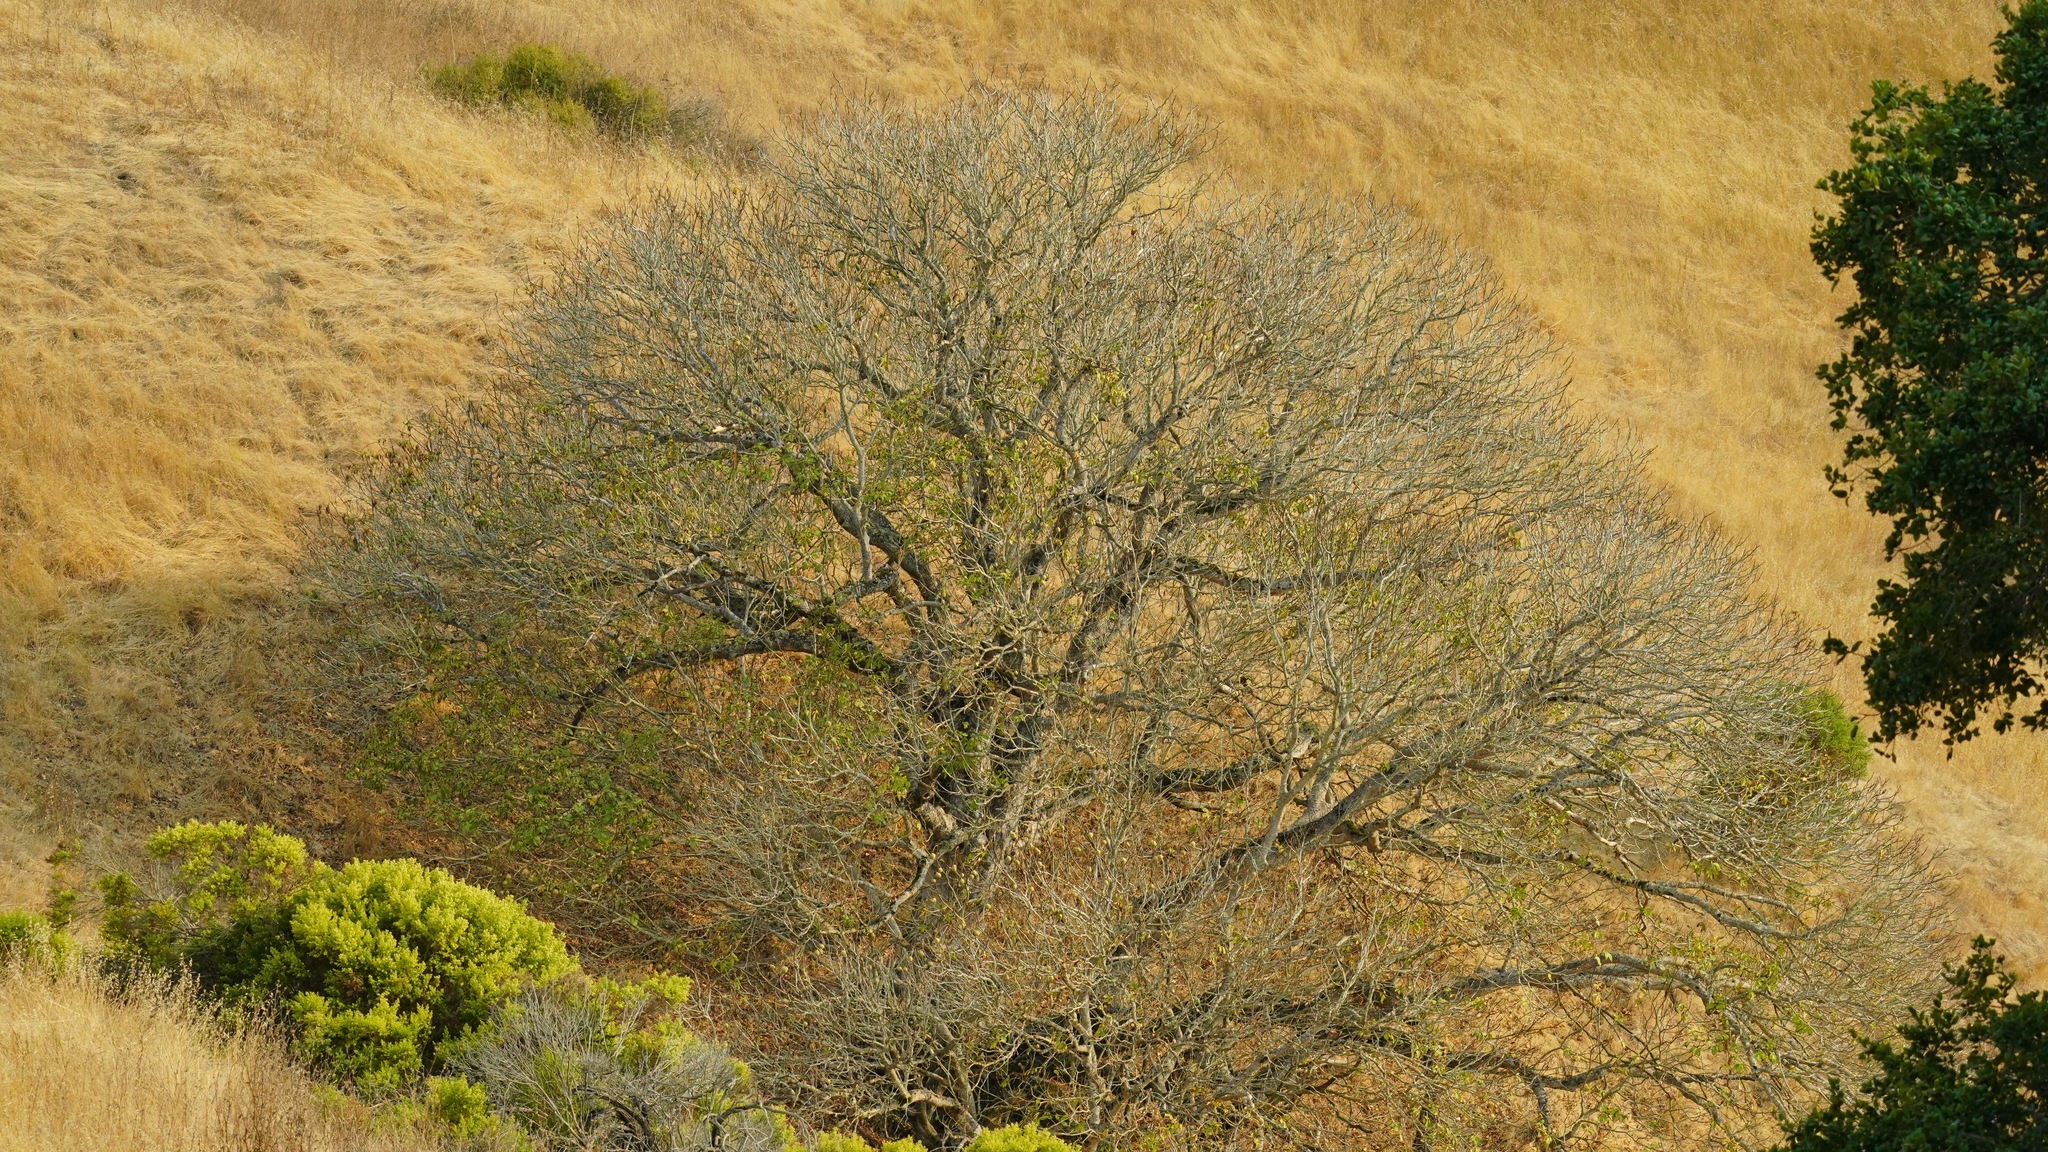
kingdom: Plantae
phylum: Tracheophyta
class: Magnoliopsida
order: Sapindales
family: Sapindaceae
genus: Aesculus
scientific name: Aesculus californica
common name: California buckeye
